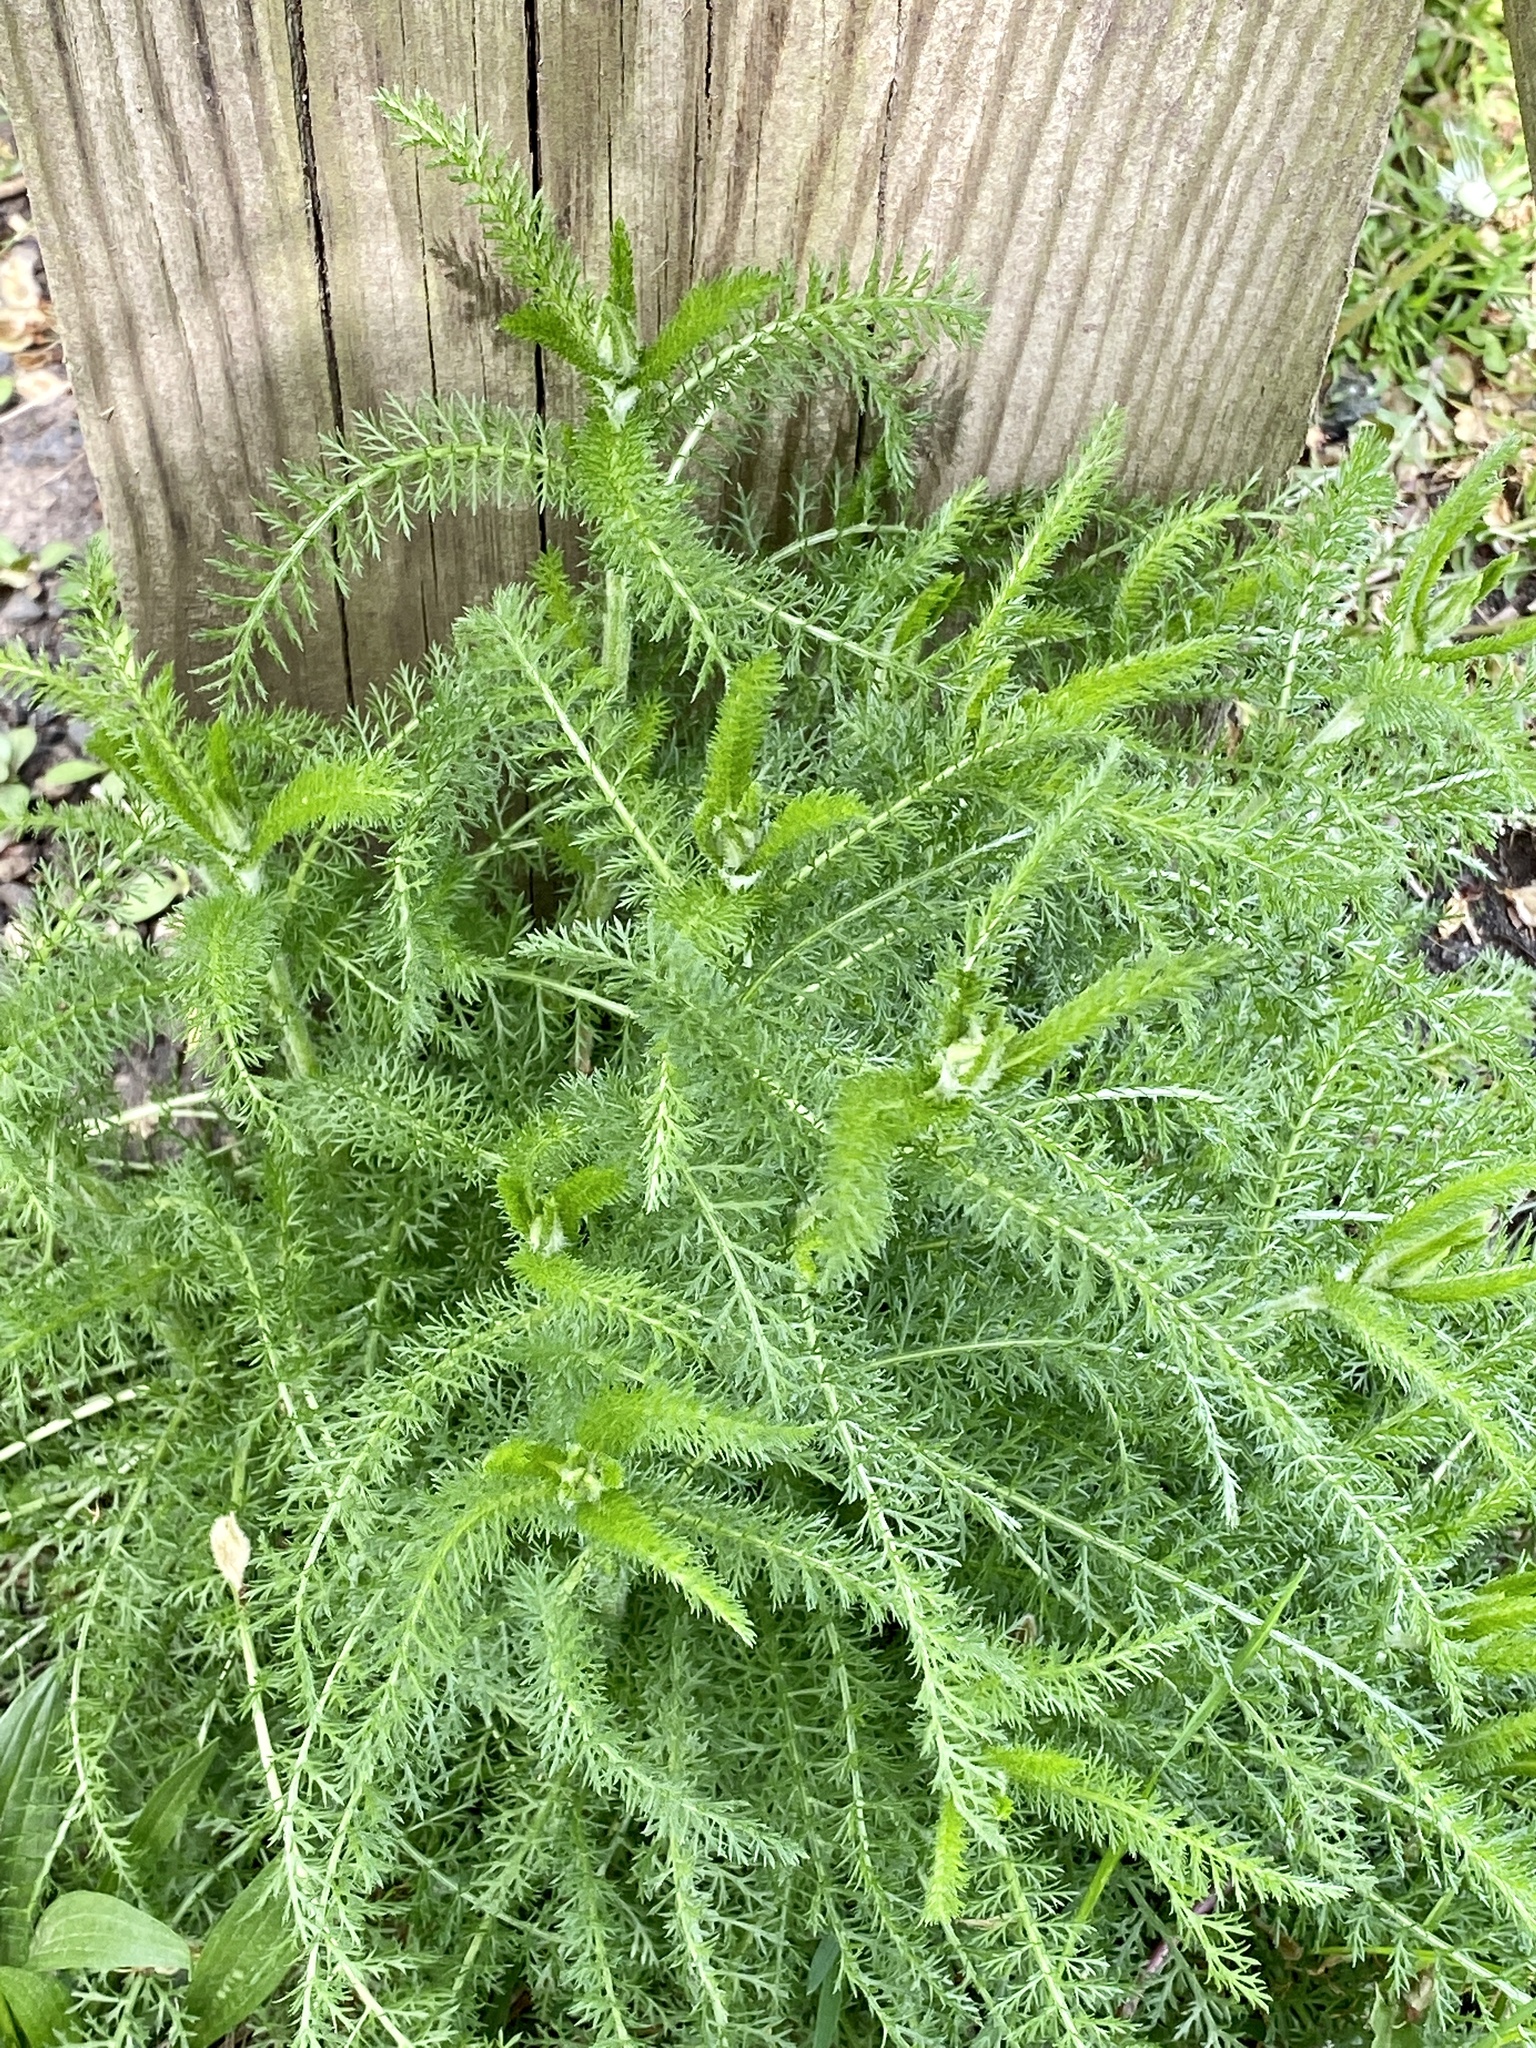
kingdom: Plantae
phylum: Tracheophyta
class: Magnoliopsida
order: Asterales
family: Asteraceae
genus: Achillea
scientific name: Achillea millefolium
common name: Yarrow
